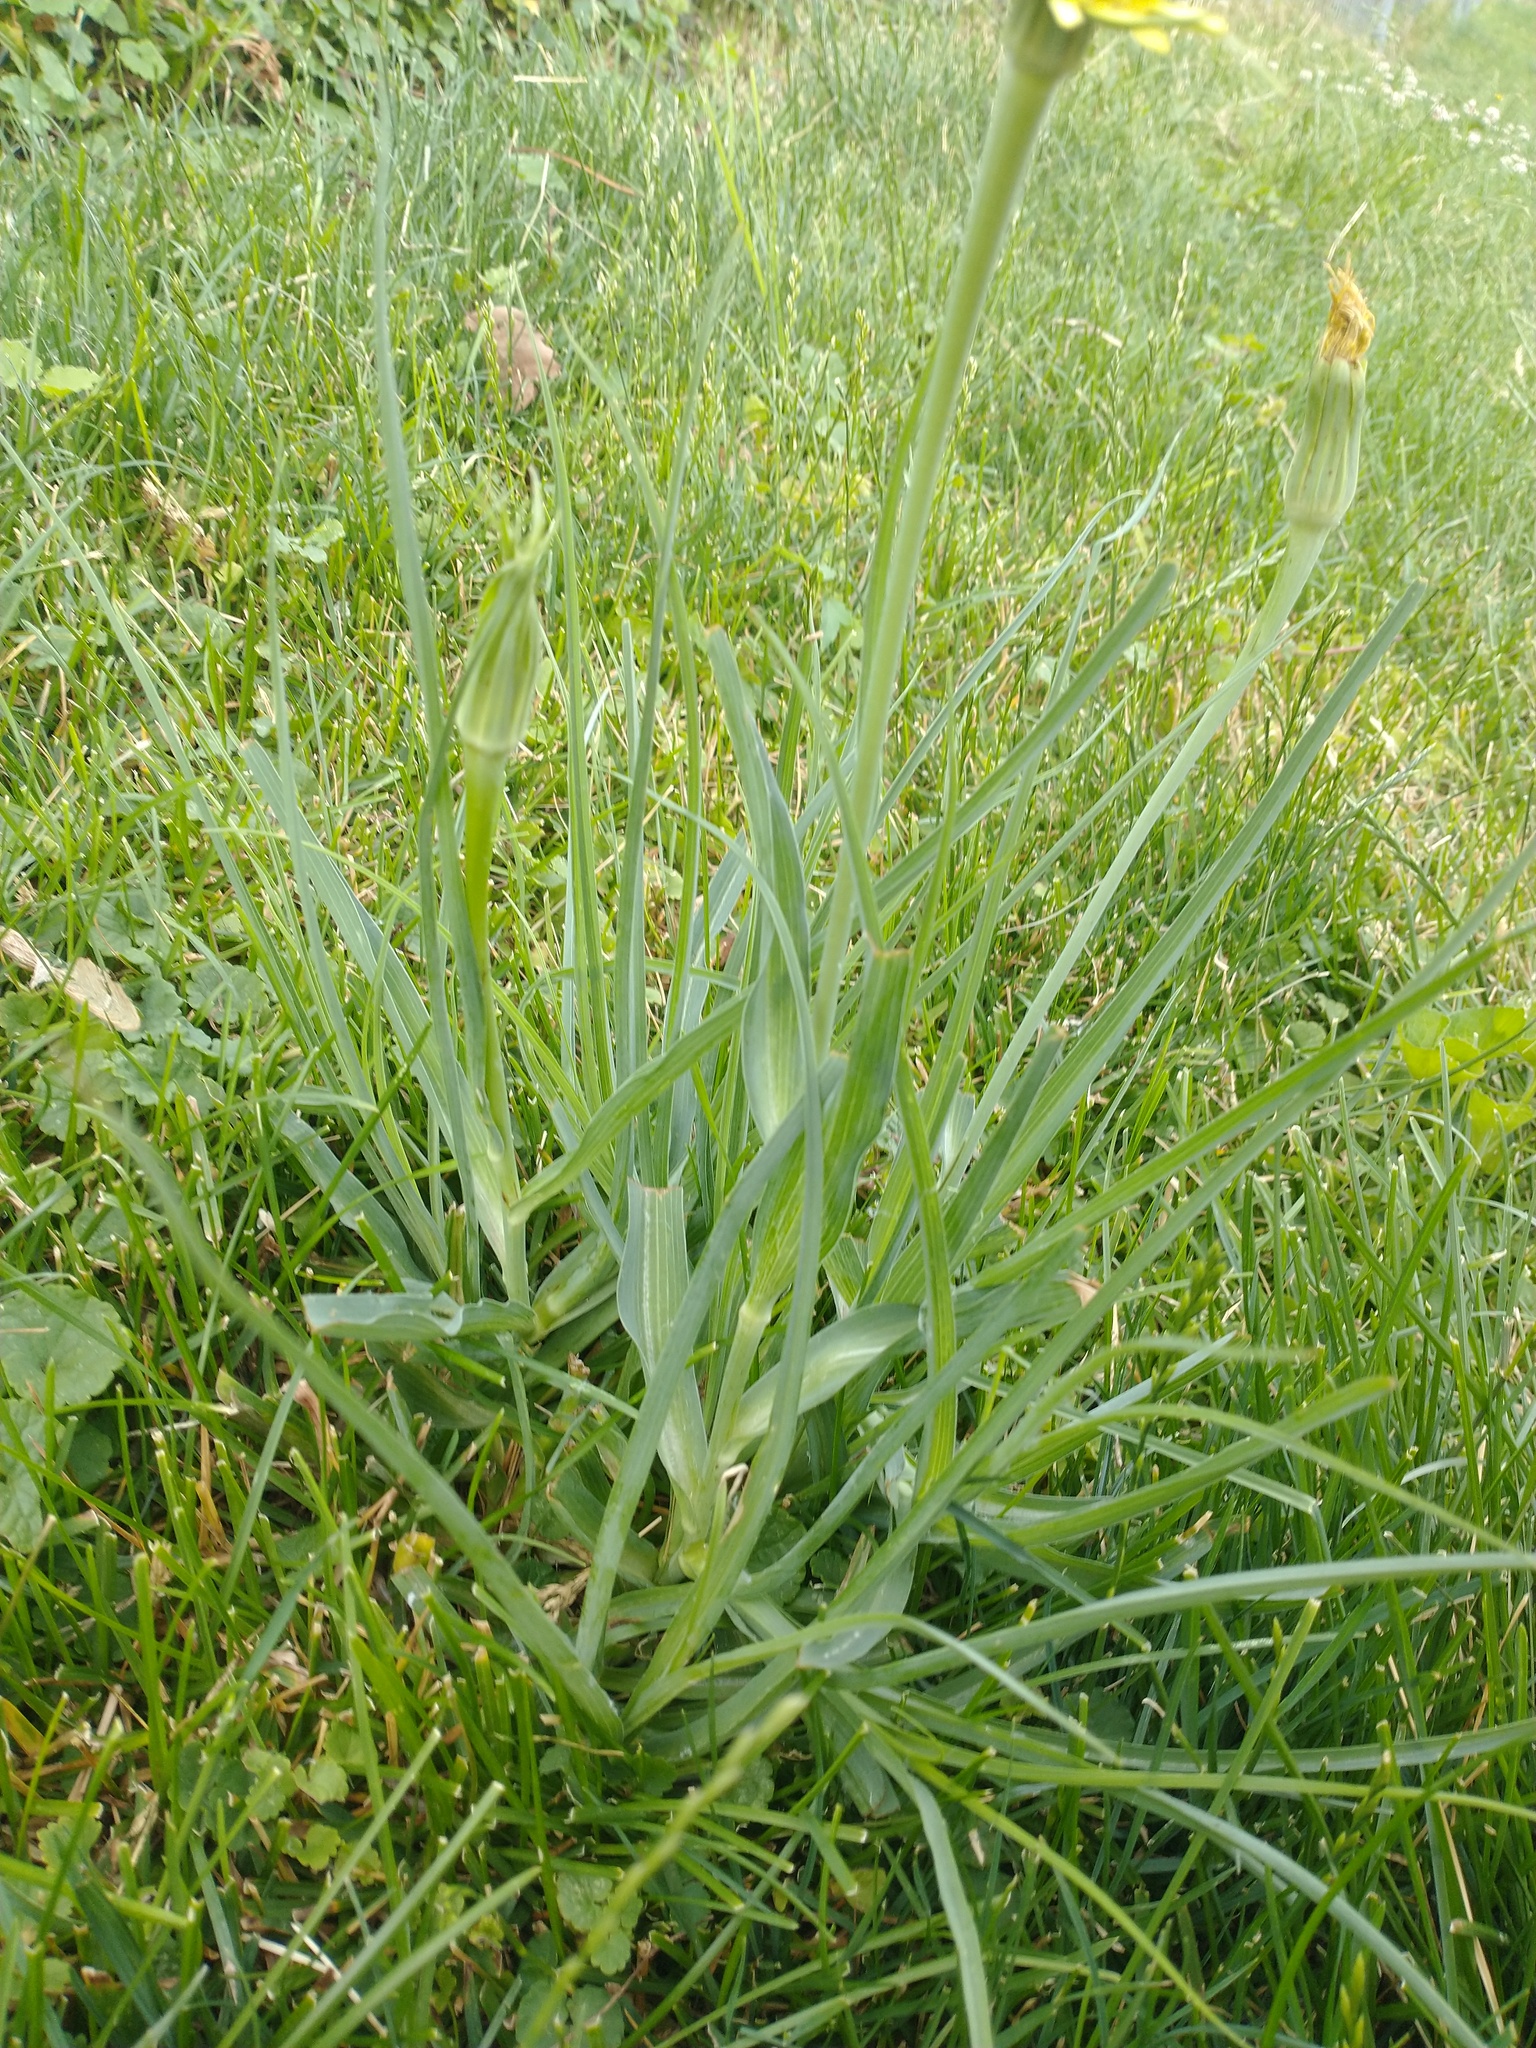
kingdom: Plantae
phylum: Tracheophyta
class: Magnoliopsida
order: Asterales
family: Asteraceae
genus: Tragopogon
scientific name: Tragopogon dubius
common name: Yellow salsify
